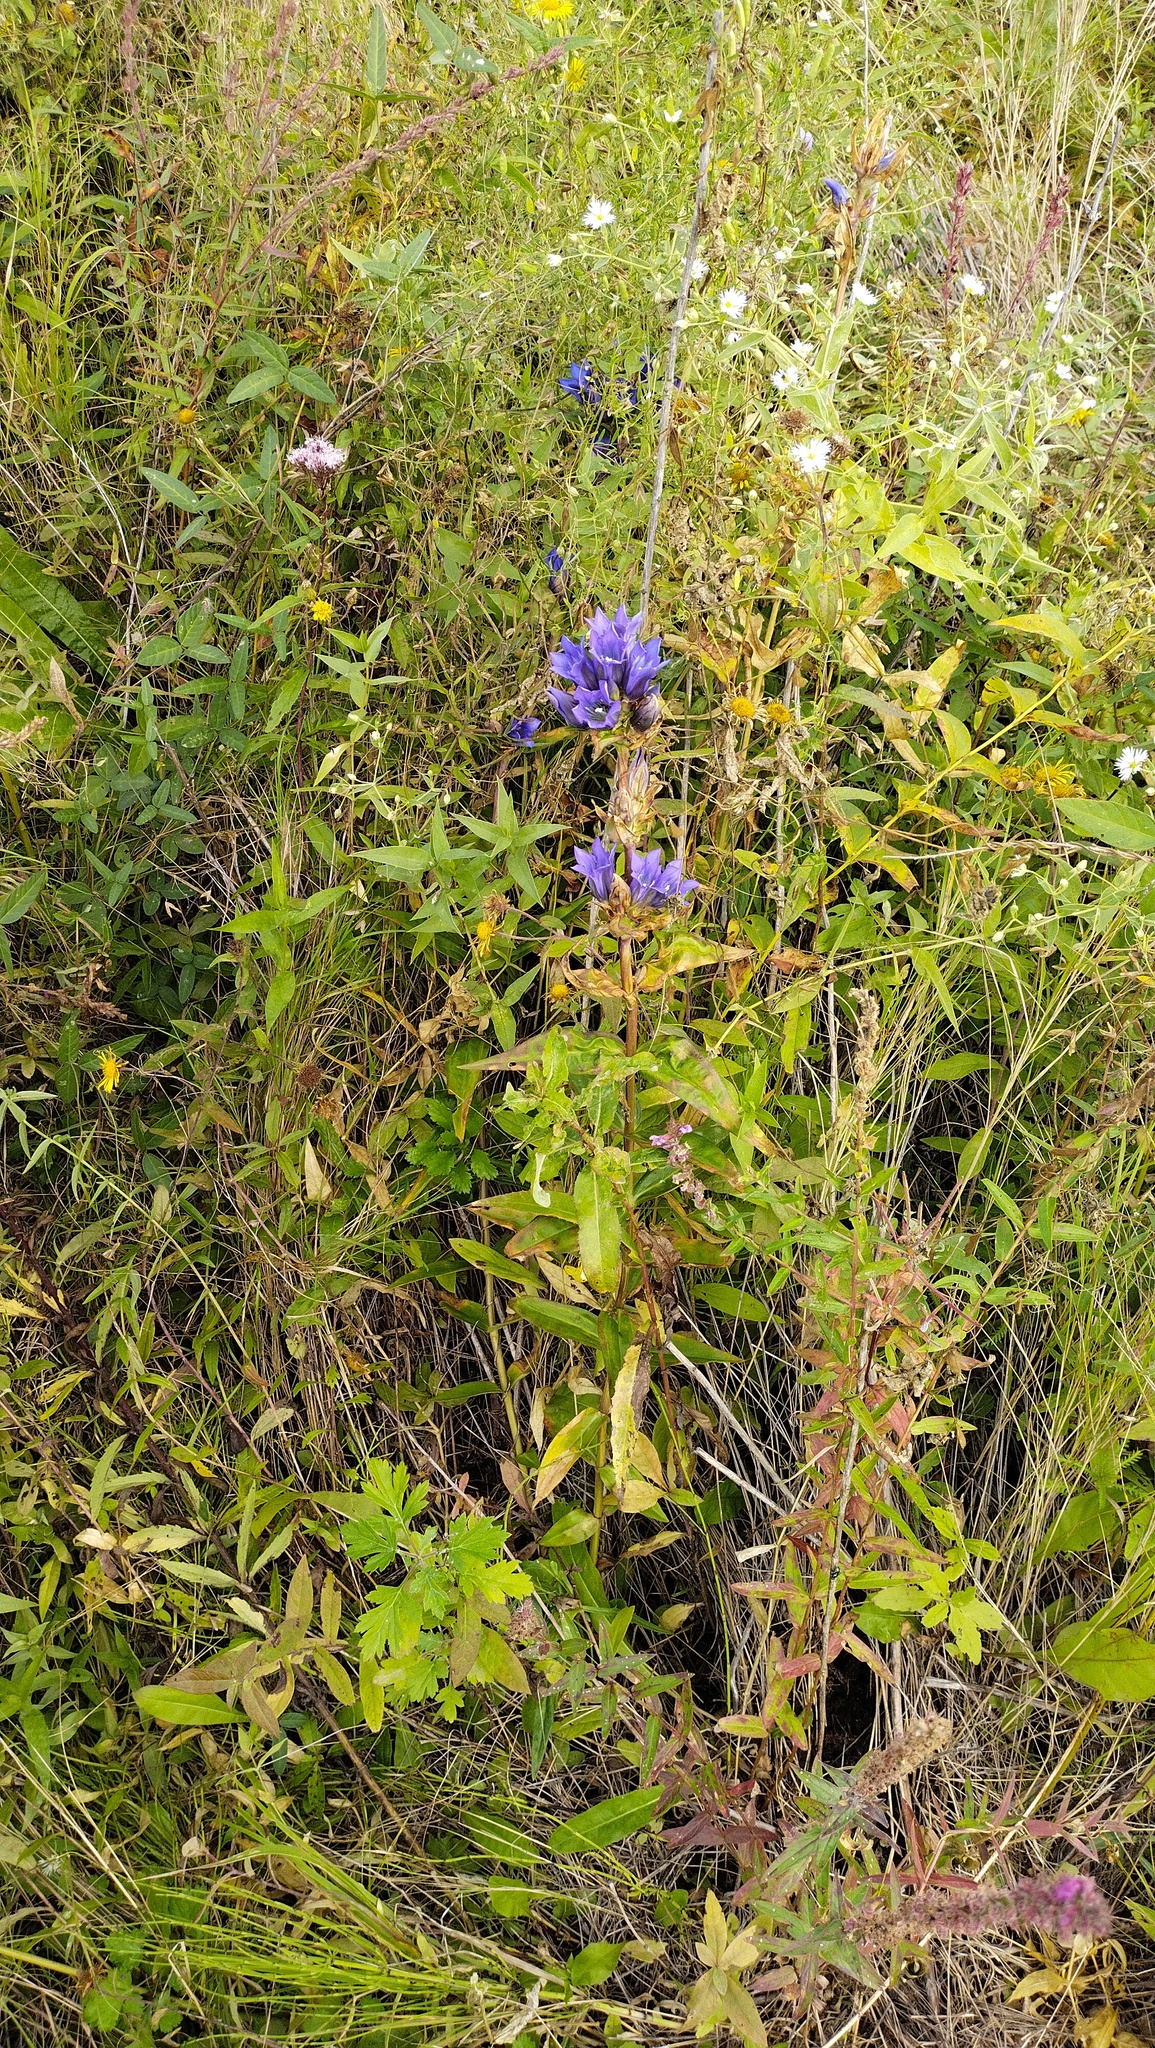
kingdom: Plantae
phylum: Tracheophyta
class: Magnoliopsida
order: Gentianales
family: Gentianaceae
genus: Gentiana
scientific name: Gentiana scabra
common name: Scabrous gentian
